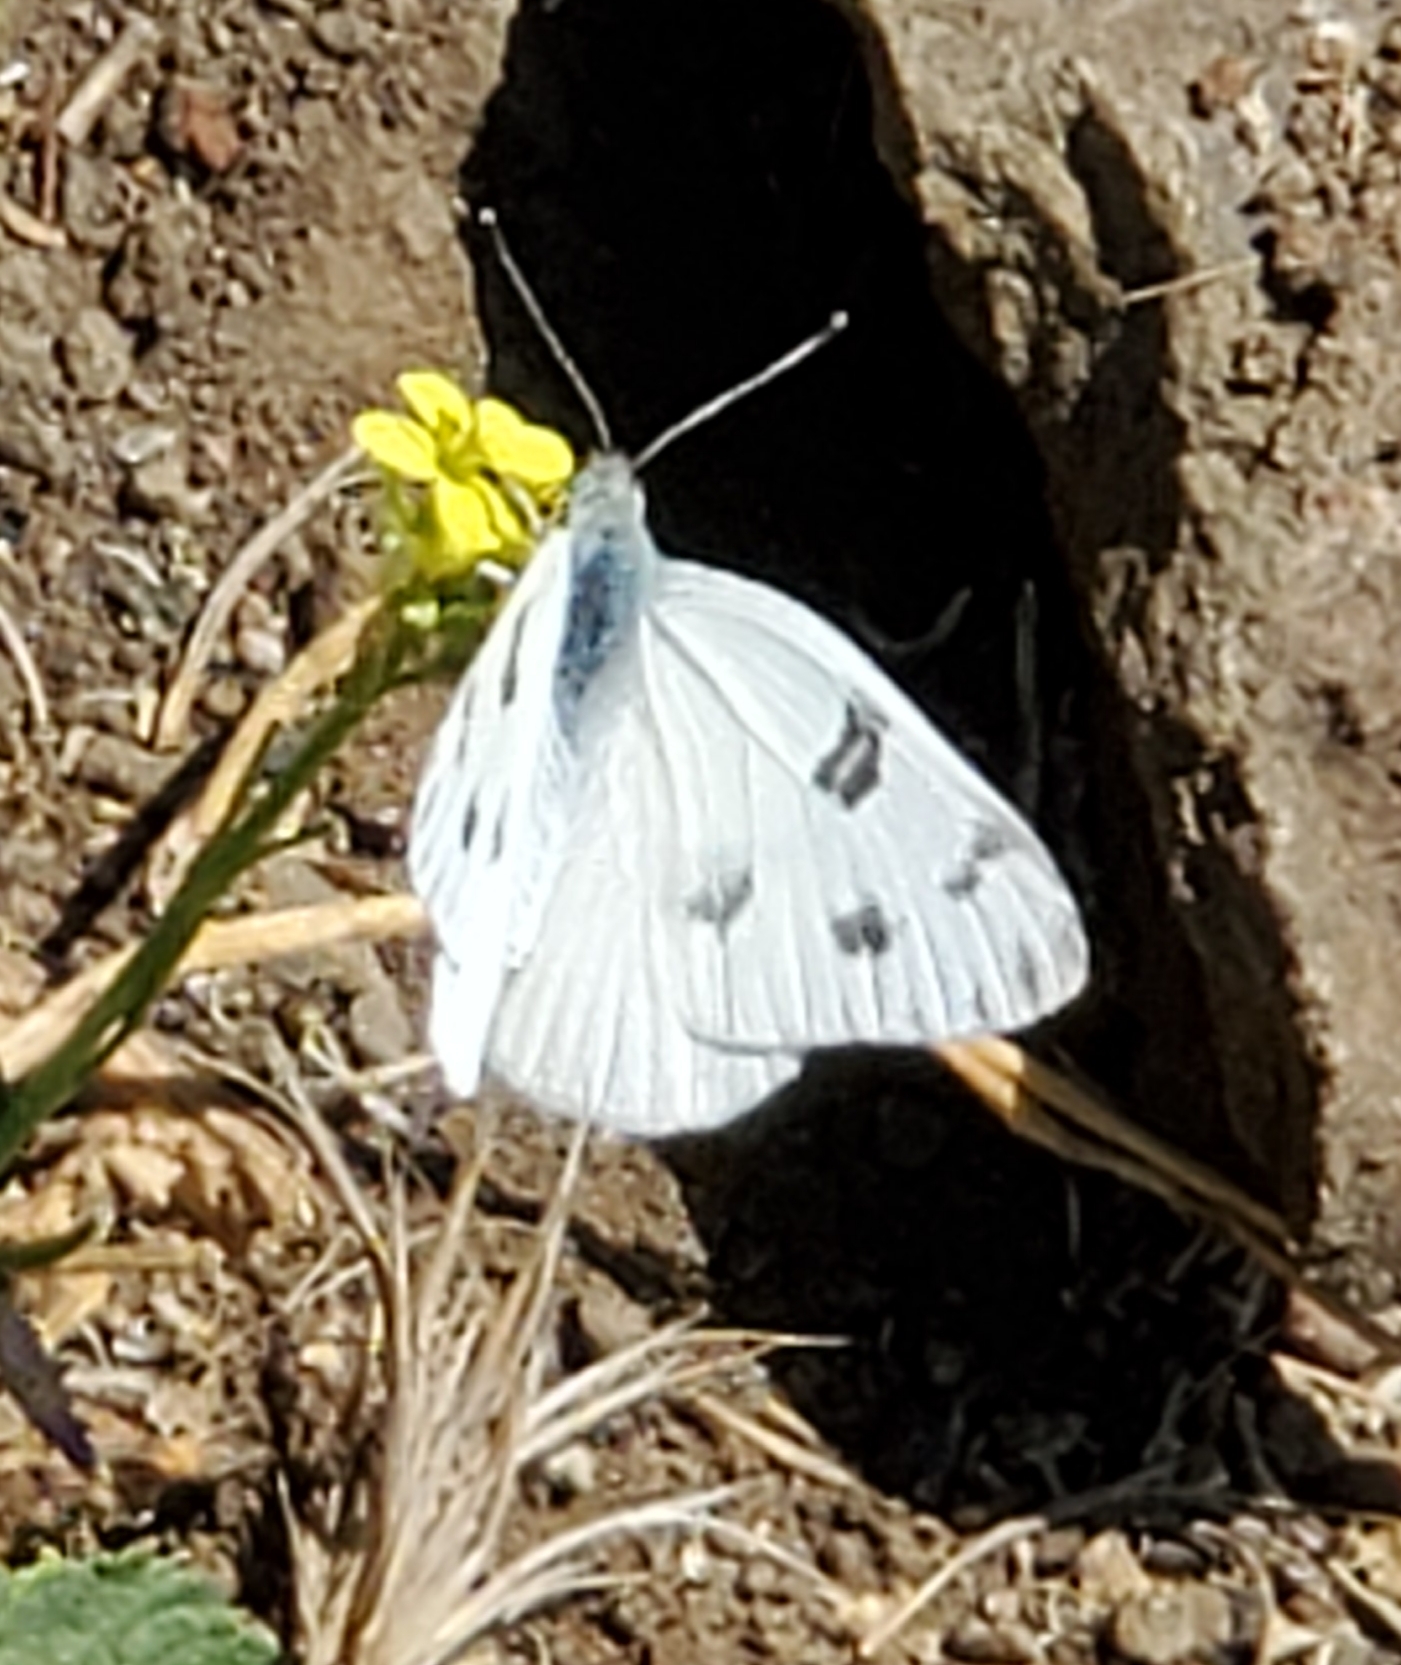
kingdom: Animalia
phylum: Arthropoda
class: Insecta
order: Lepidoptera
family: Pieridae
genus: Pontia
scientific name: Pontia protodice
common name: Checkered white
